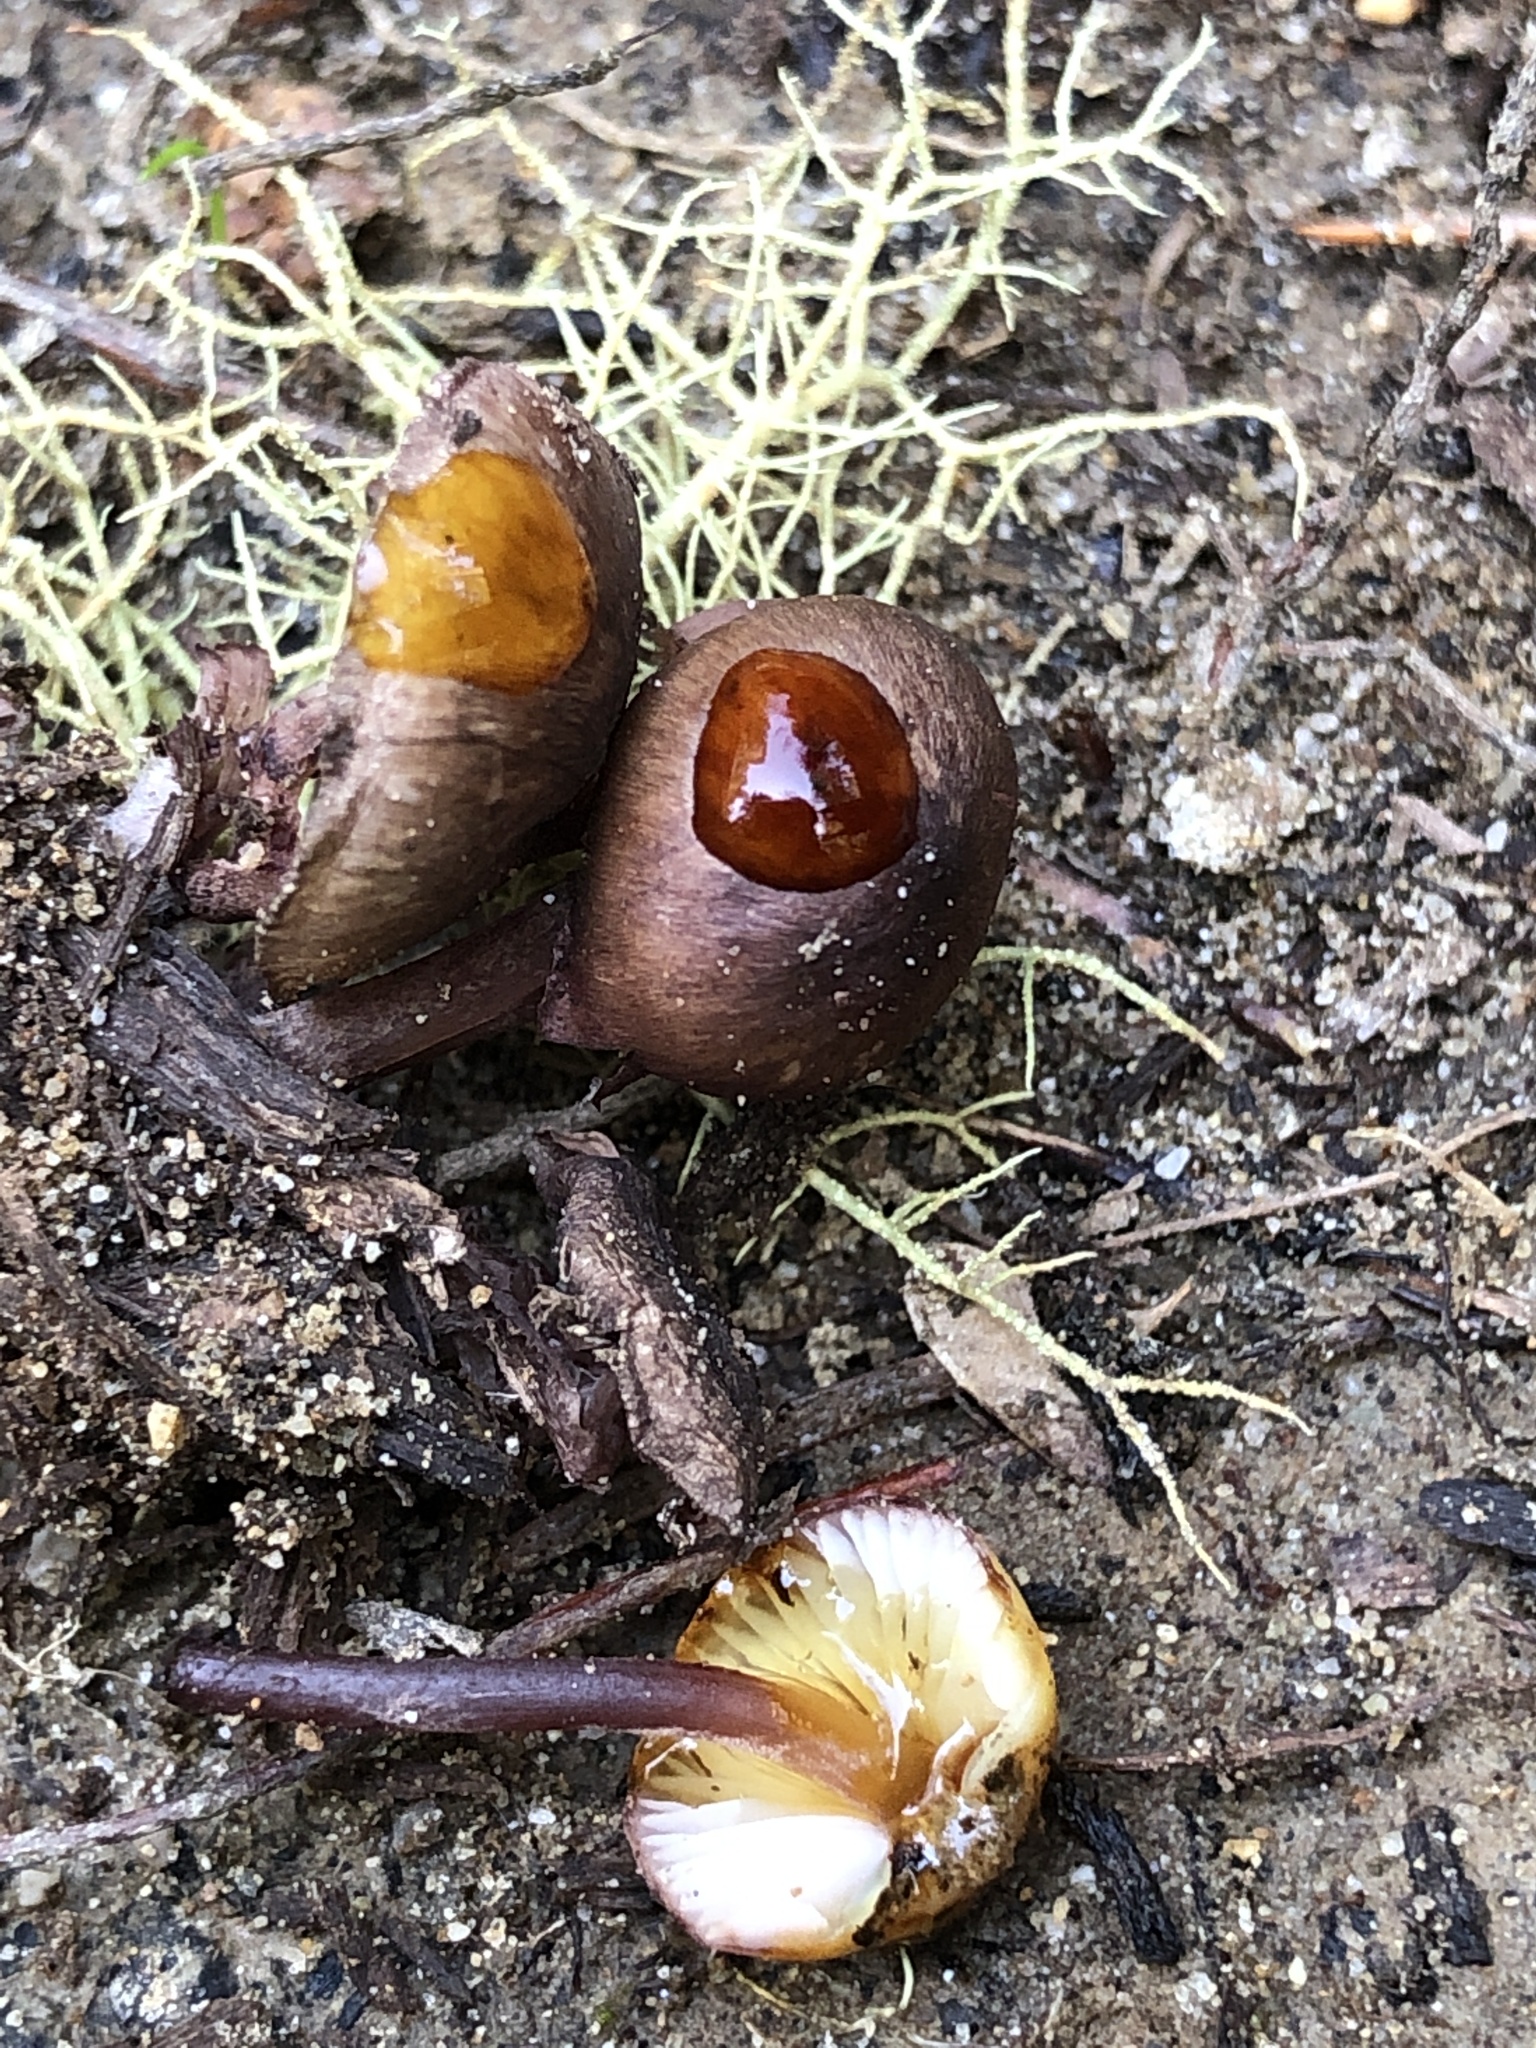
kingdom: Fungi
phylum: Basidiomycota
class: Agaricomycetes
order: Agaricales
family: Mycenaceae
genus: Mycena
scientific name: Mycena haematopus
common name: Burgundydrop bonnet
